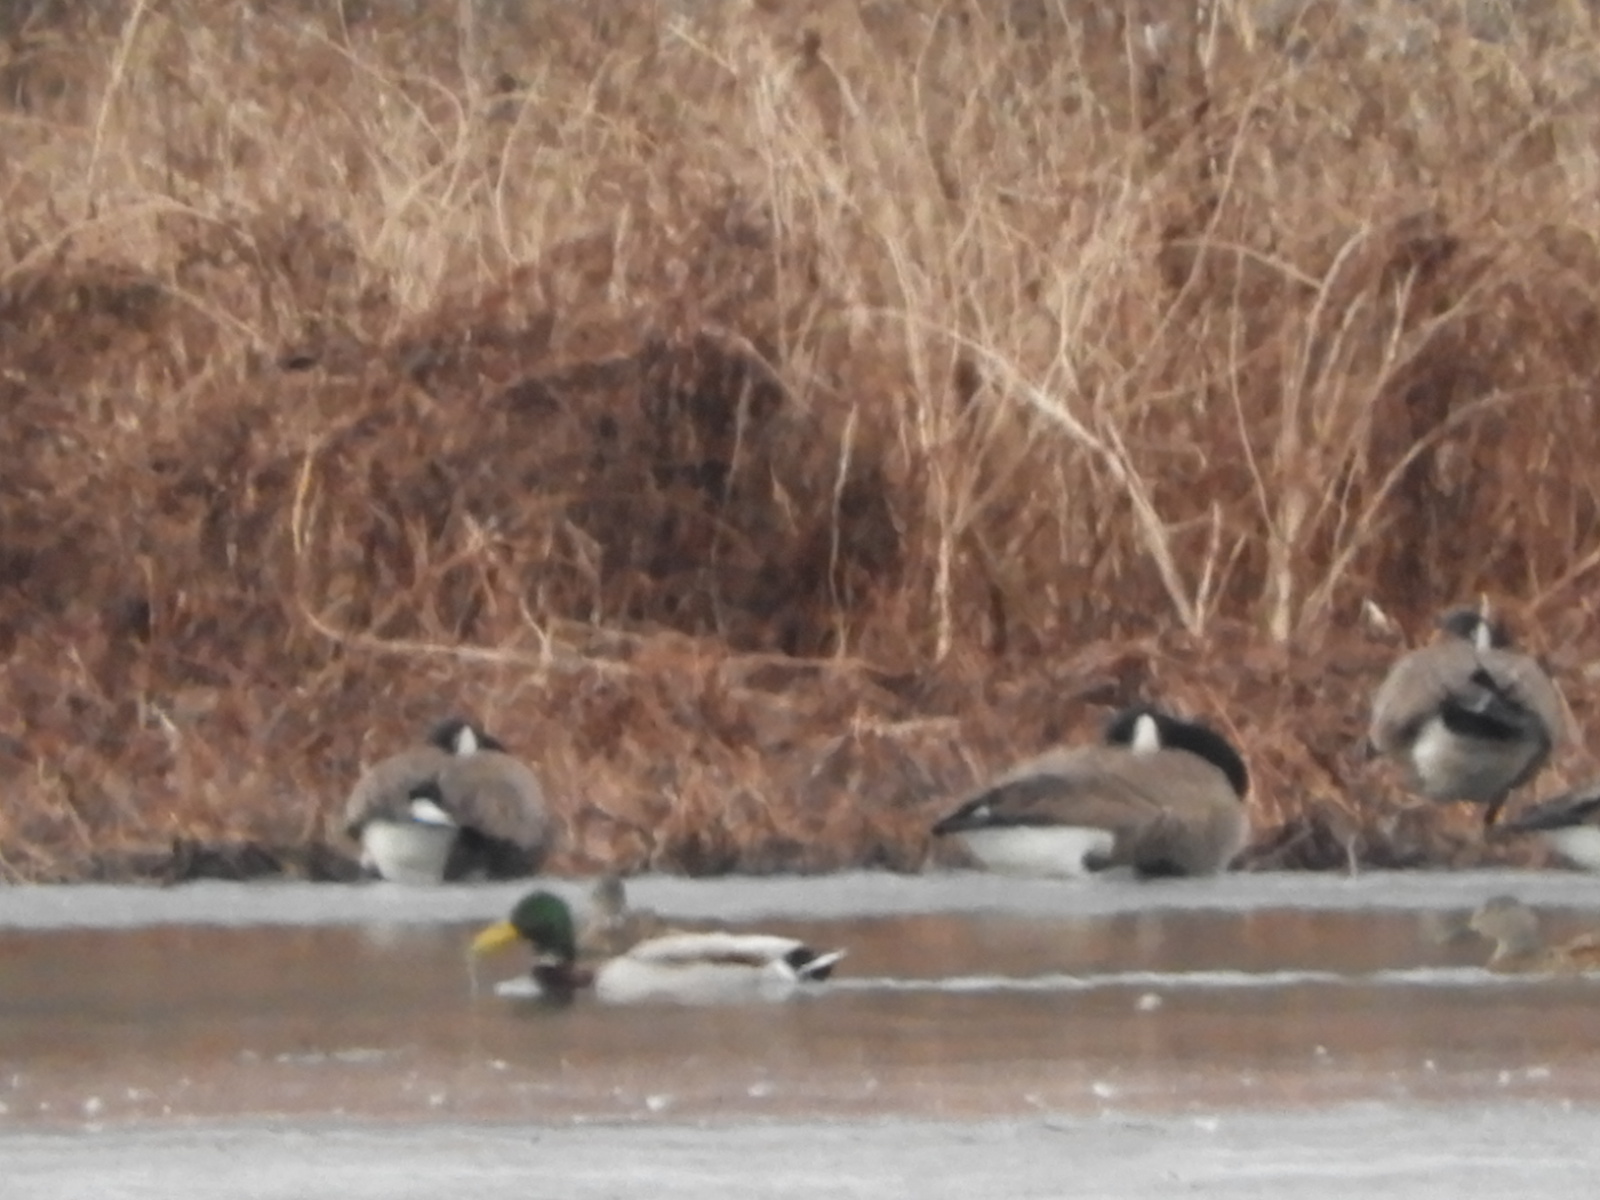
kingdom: Animalia
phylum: Chordata
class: Aves
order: Anseriformes
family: Anatidae
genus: Anas
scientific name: Anas platyrhynchos
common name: Mallard
